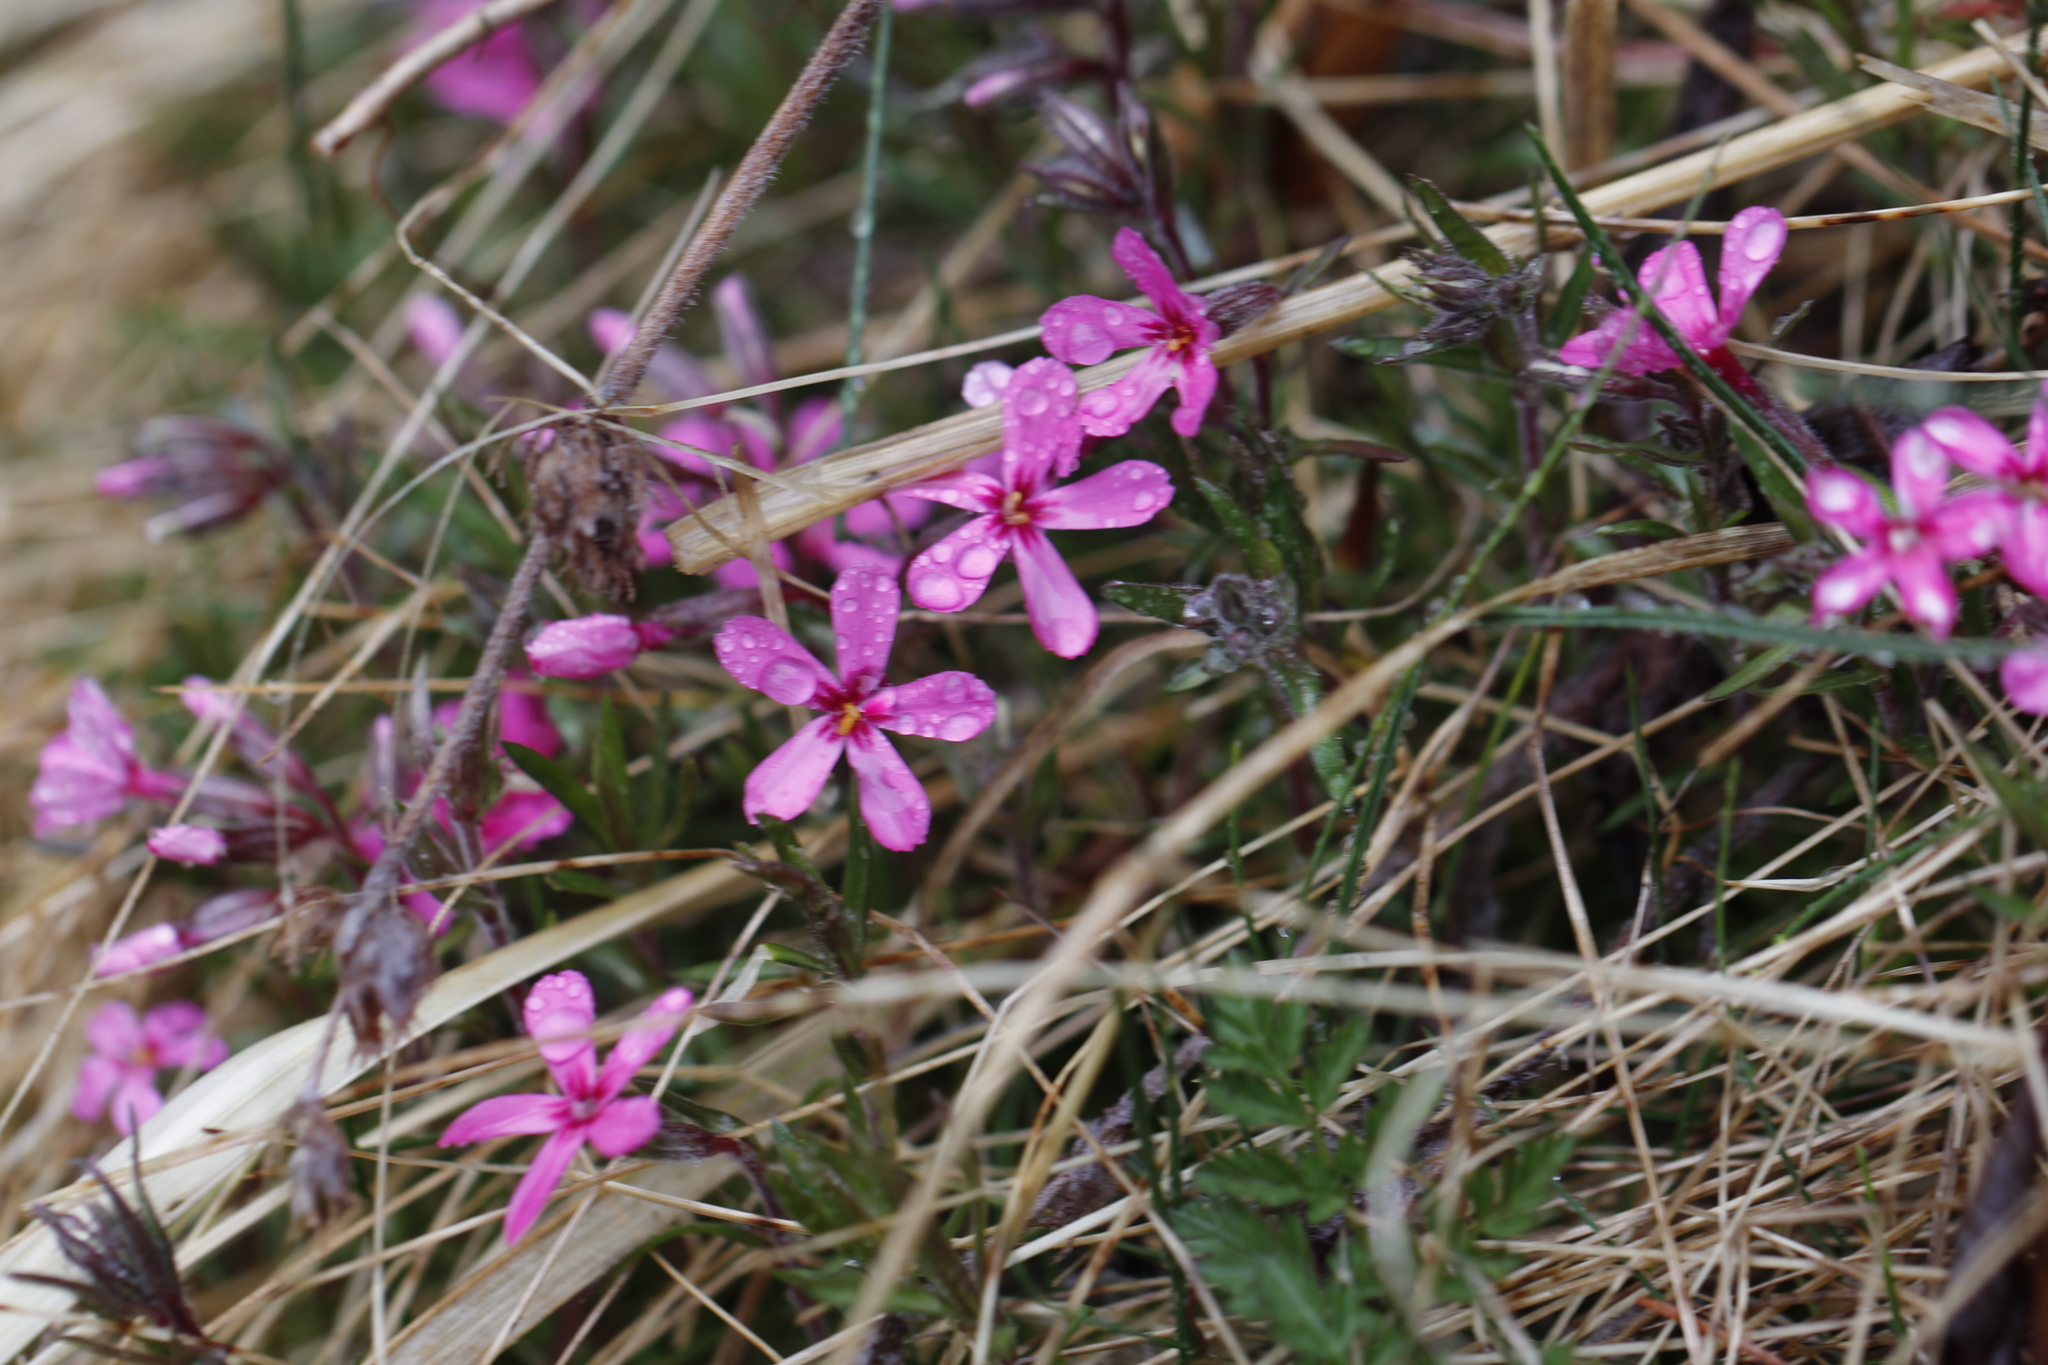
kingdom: Plantae
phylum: Tracheophyta
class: Magnoliopsida
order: Ericales
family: Polemoniaceae
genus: Phlox
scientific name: Phlox subulata
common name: Moss phlox
